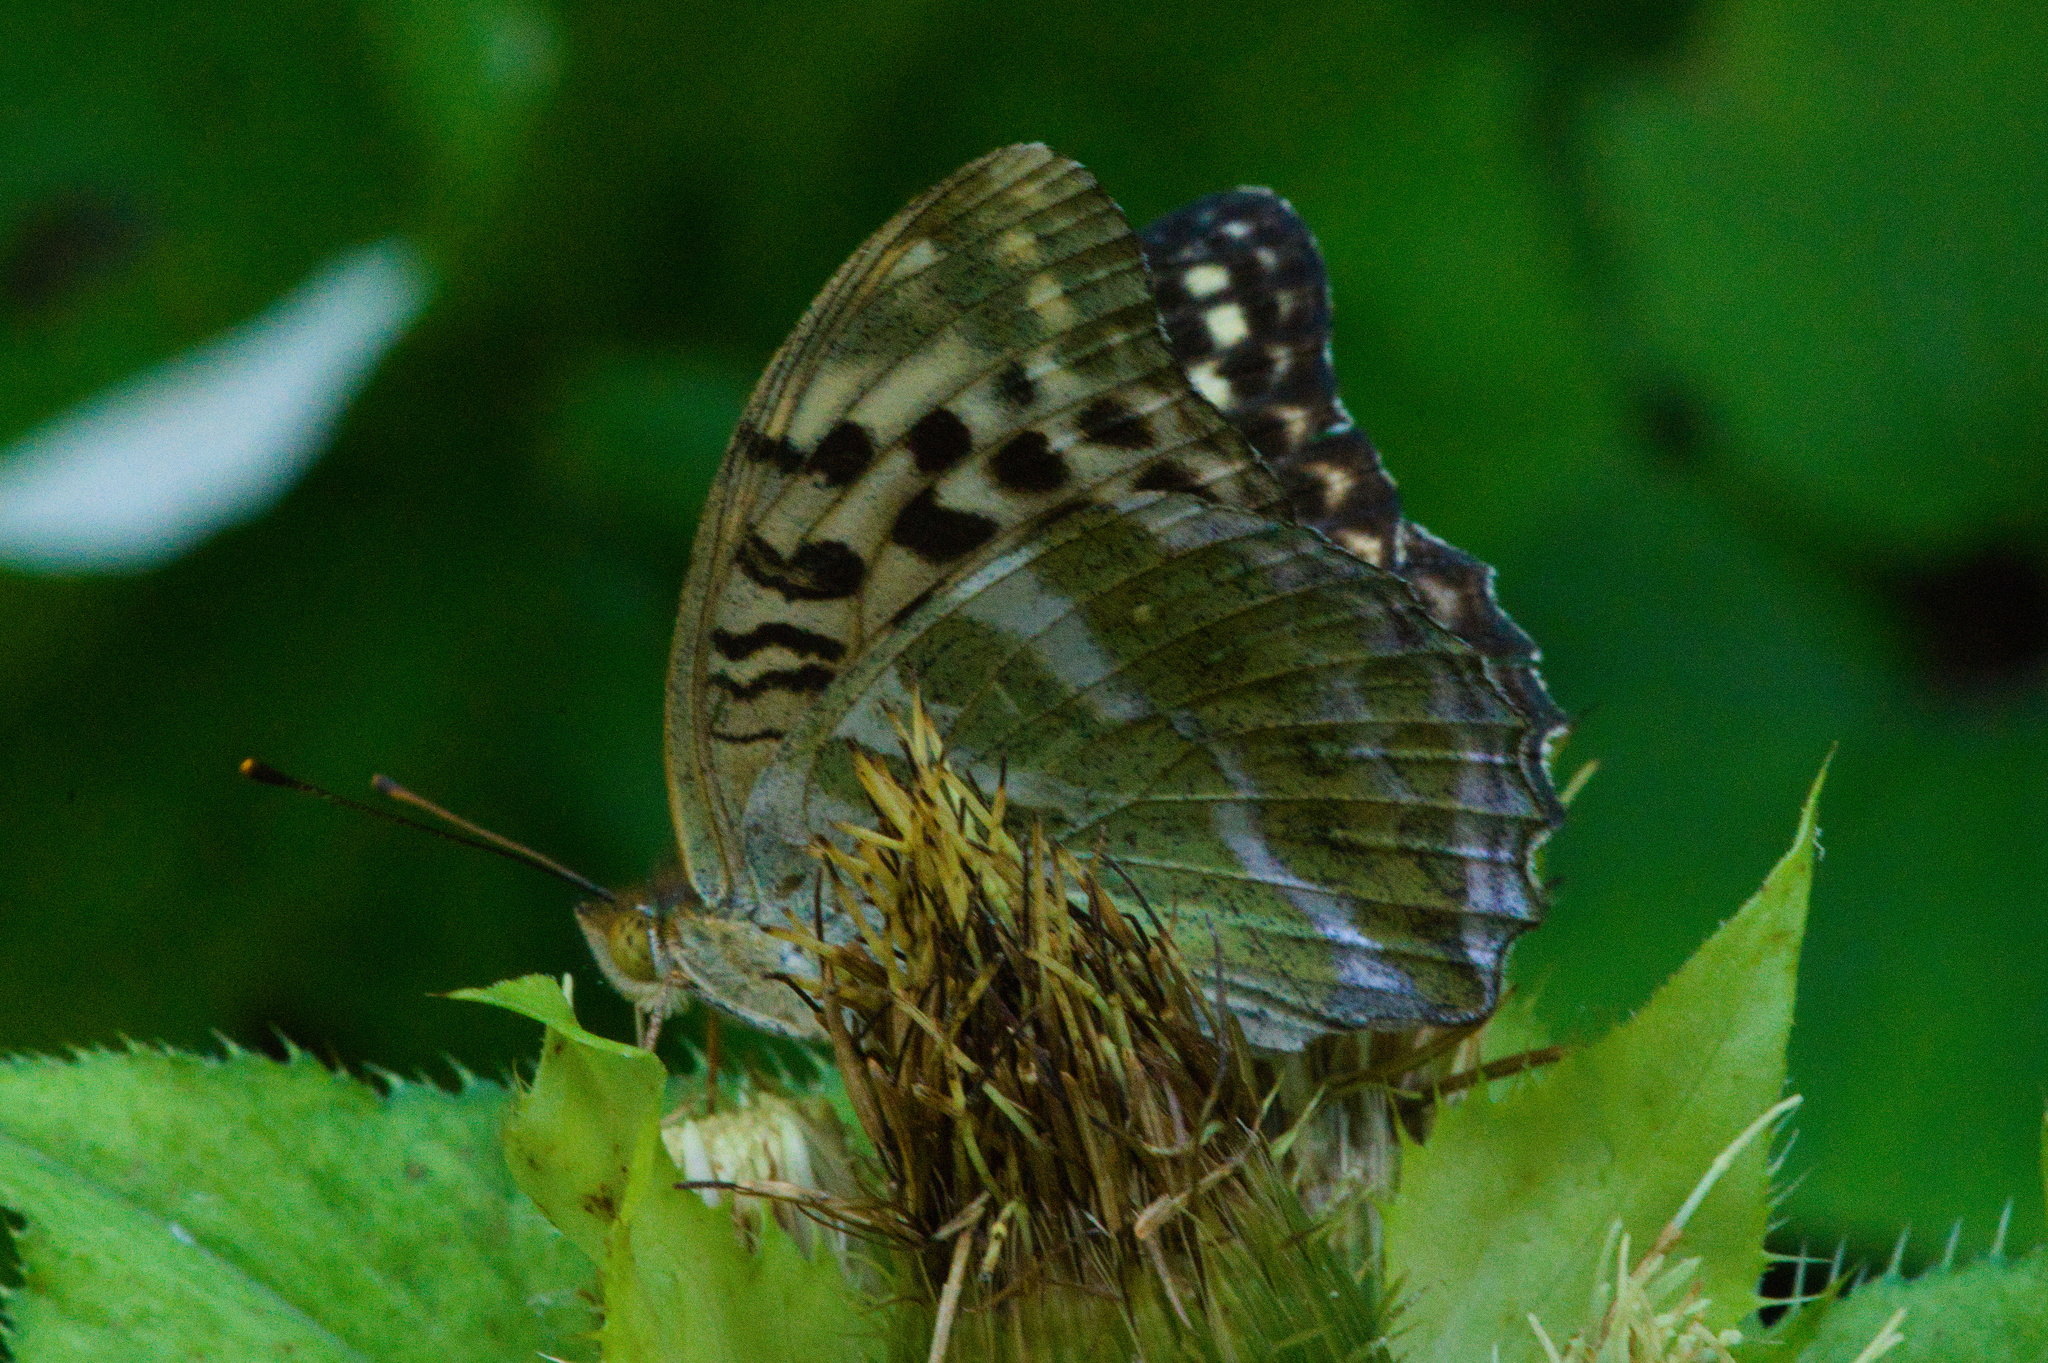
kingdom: Animalia
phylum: Arthropoda
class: Insecta
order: Lepidoptera
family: Nymphalidae
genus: Argynnis
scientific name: Argynnis paphia
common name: Silver-washed fritillary
